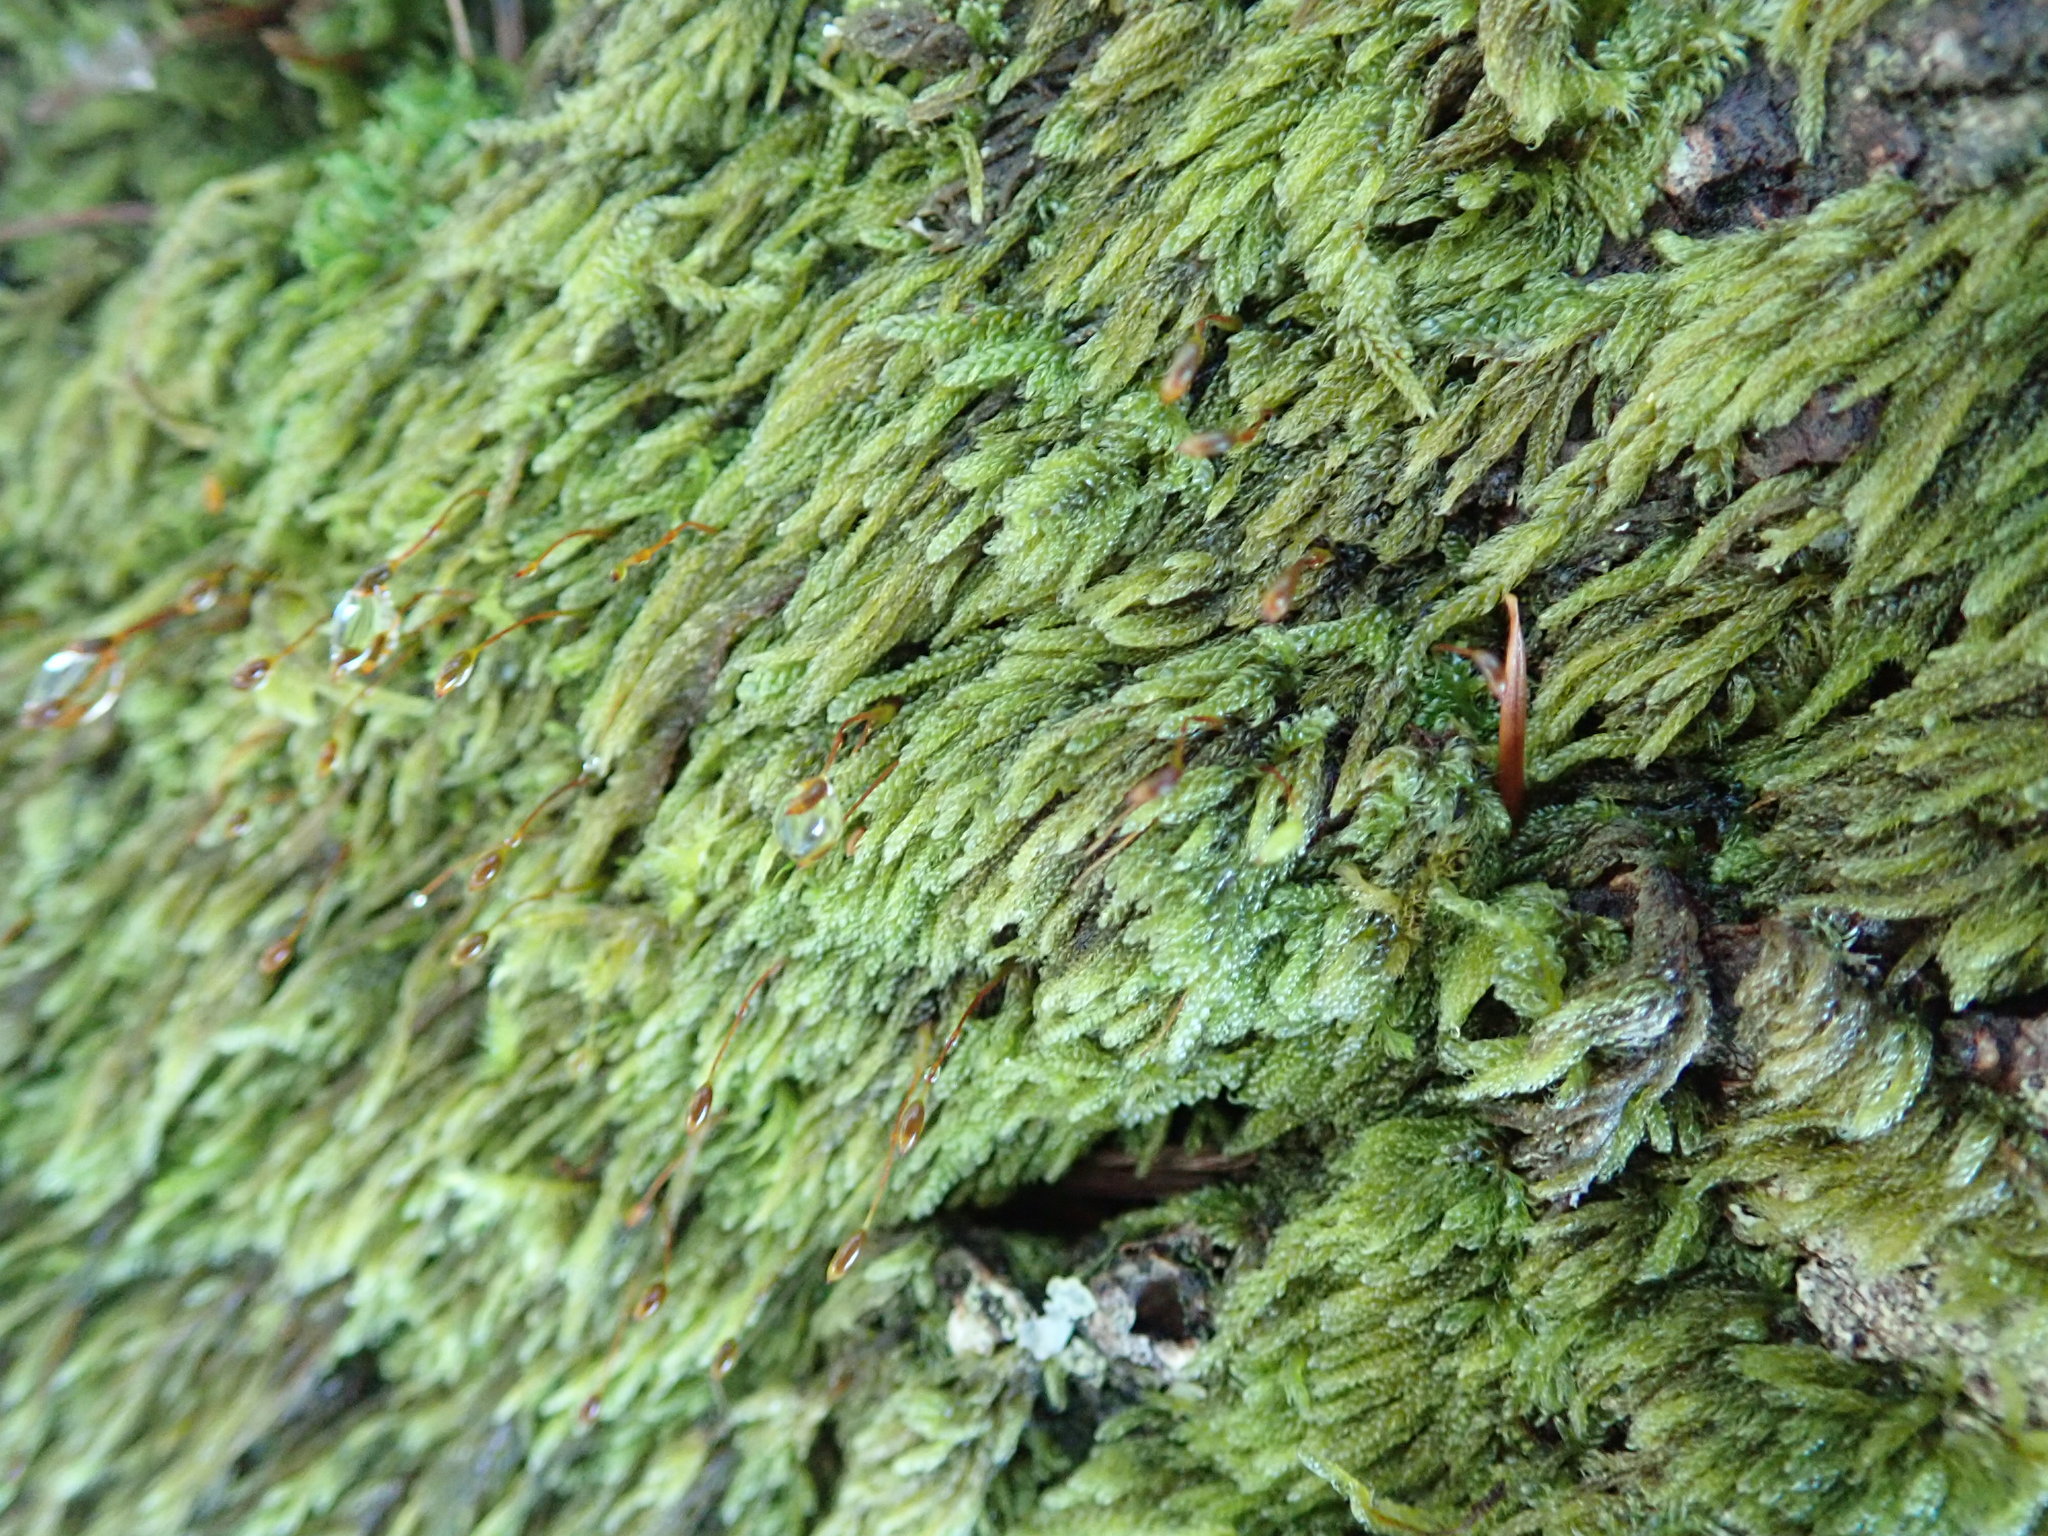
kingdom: Plantae
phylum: Bryophyta
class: Bryopsida
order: Hypnales
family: Pylaisiadelphaceae
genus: Trochophyllohypnum
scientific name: Trochophyllohypnum circinale
